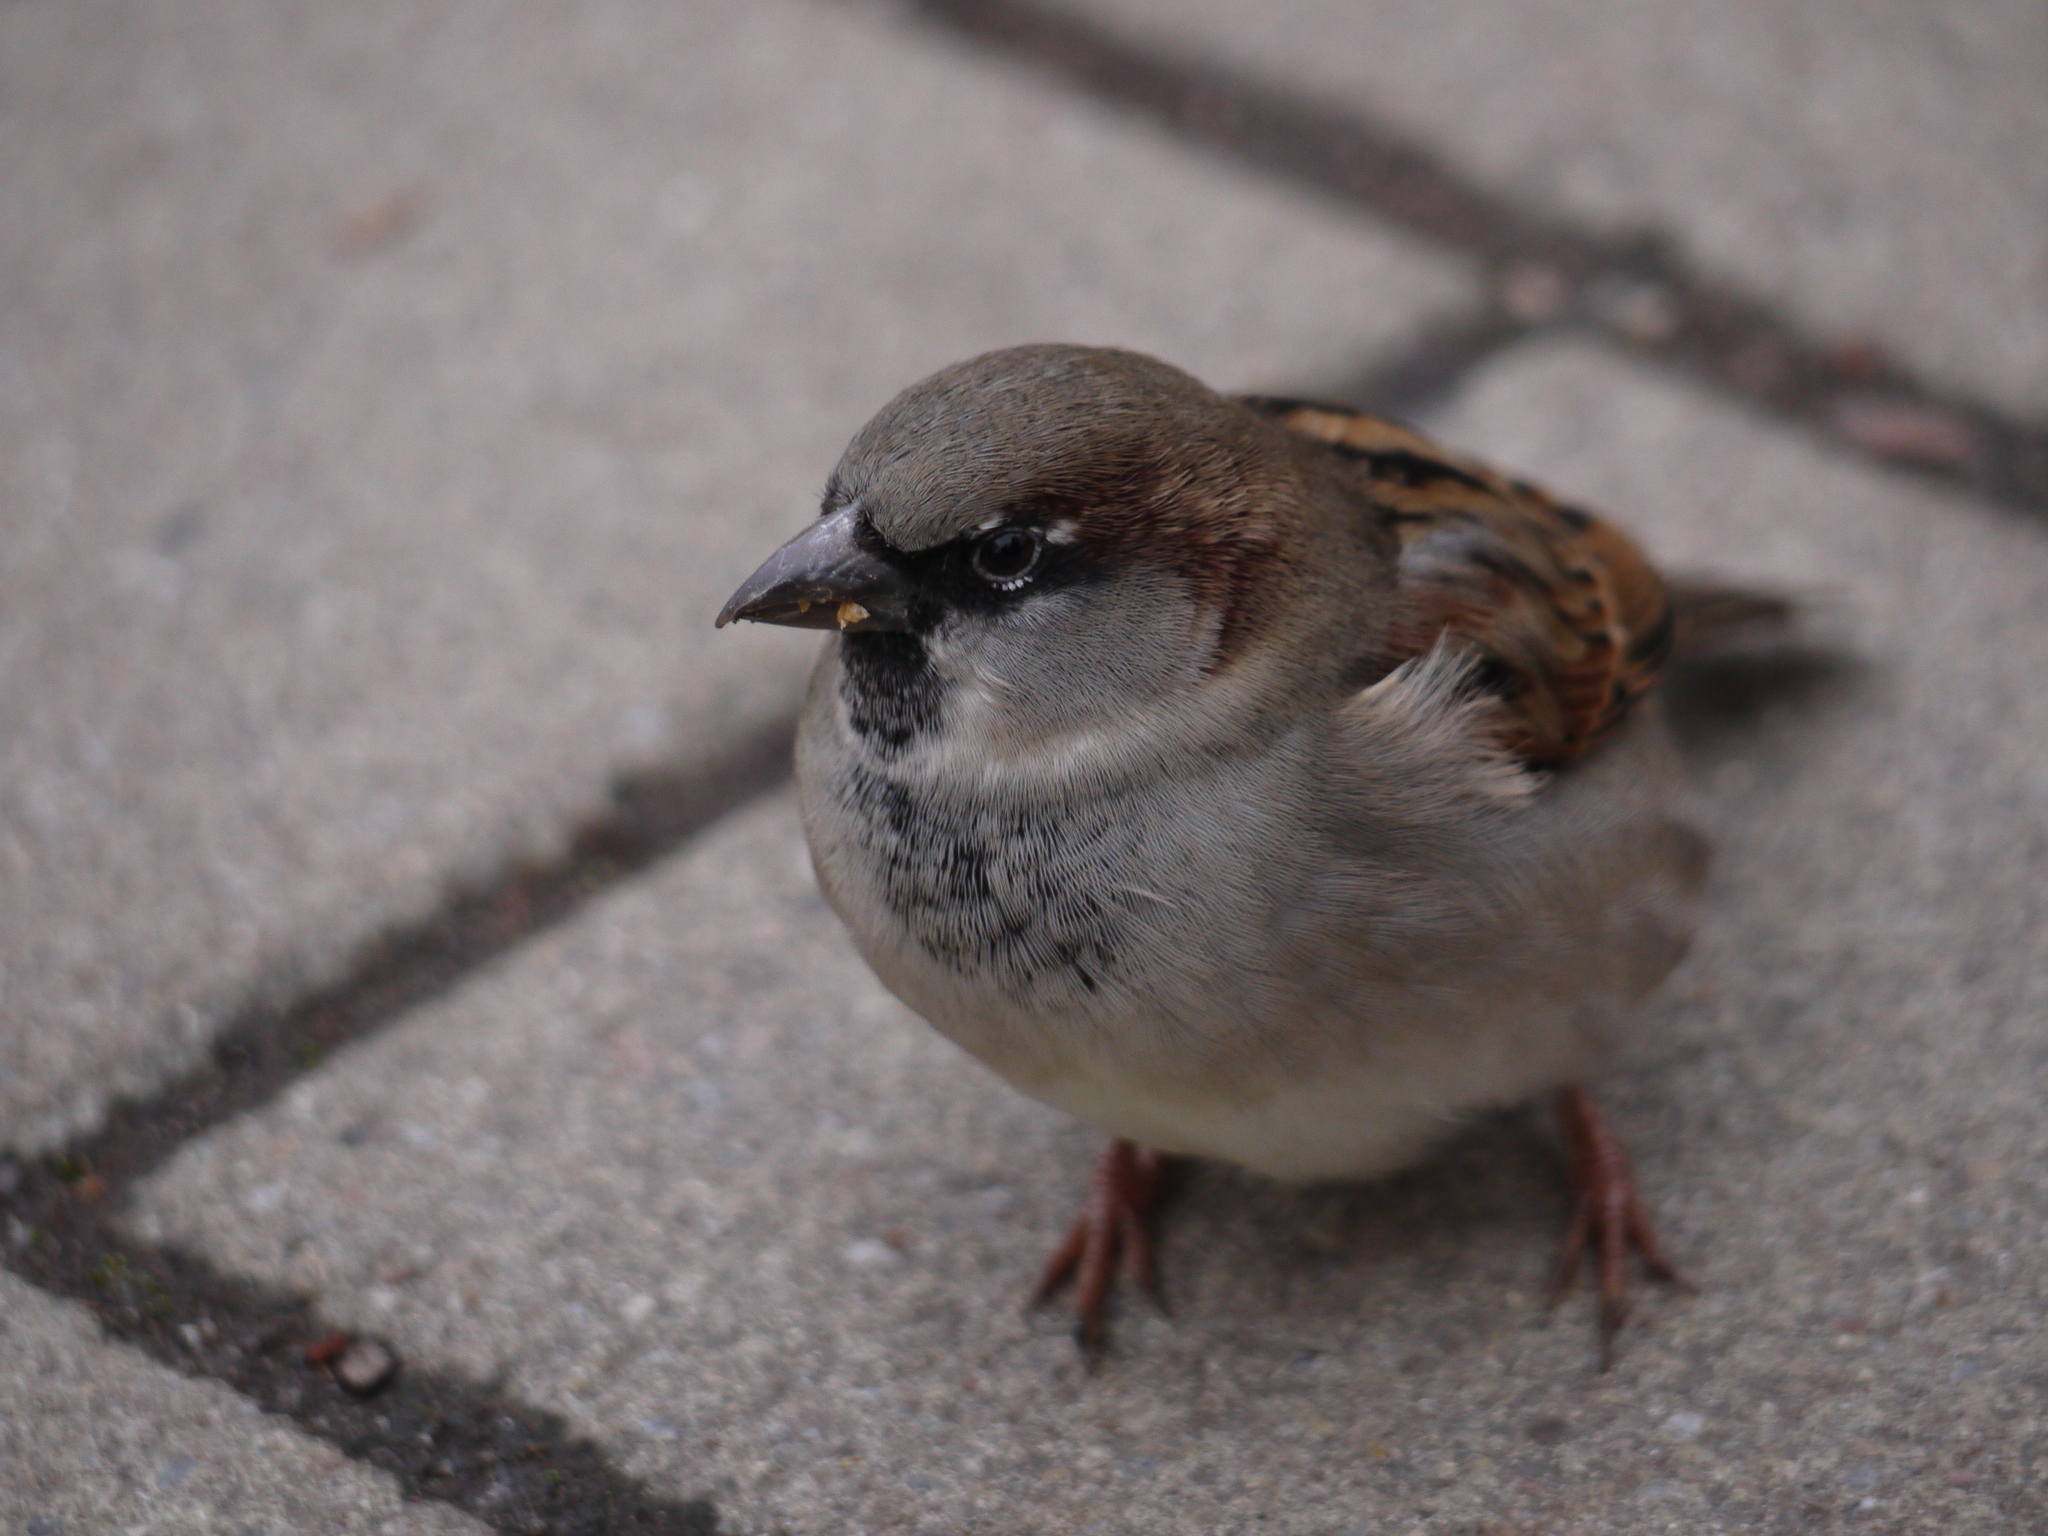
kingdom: Animalia
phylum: Chordata
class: Aves
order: Passeriformes
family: Passeridae
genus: Passer
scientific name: Passer domesticus
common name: House sparrow
